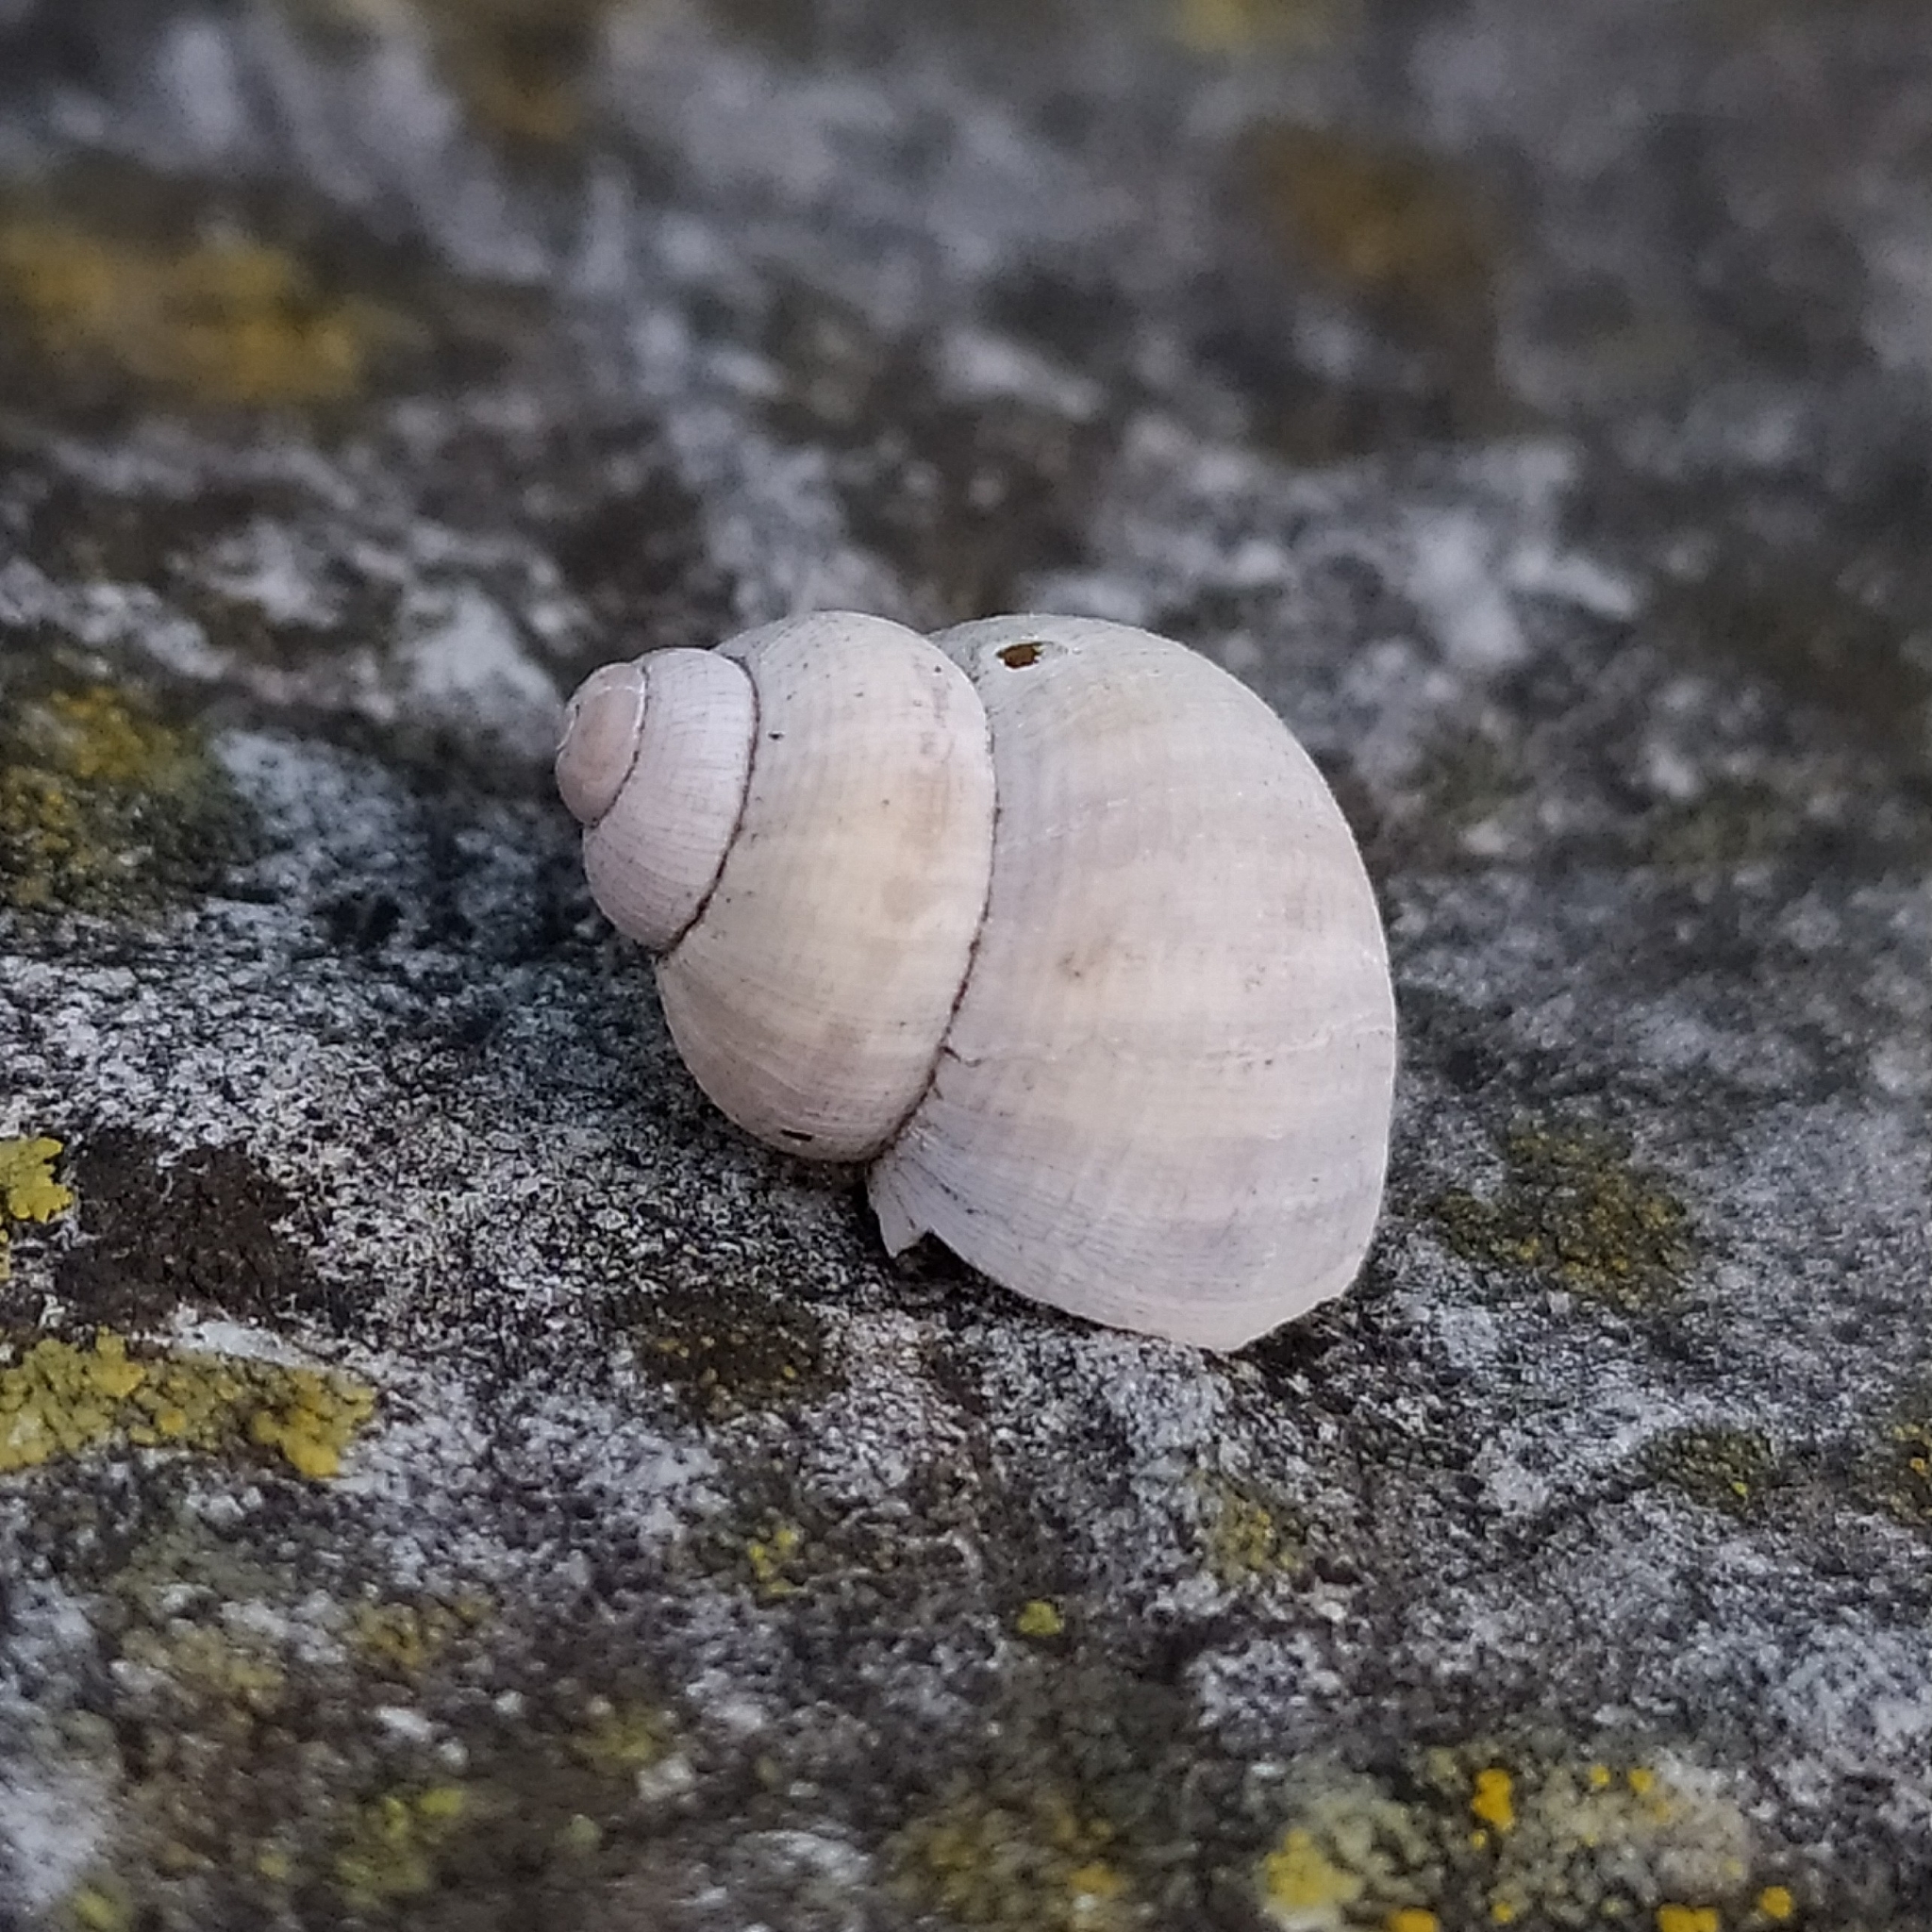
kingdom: Animalia
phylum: Mollusca
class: Gastropoda
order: Littorinimorpha
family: Pomatiidae
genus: Pomatias
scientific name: Pomatias elegans
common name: Red-mouthed snail
